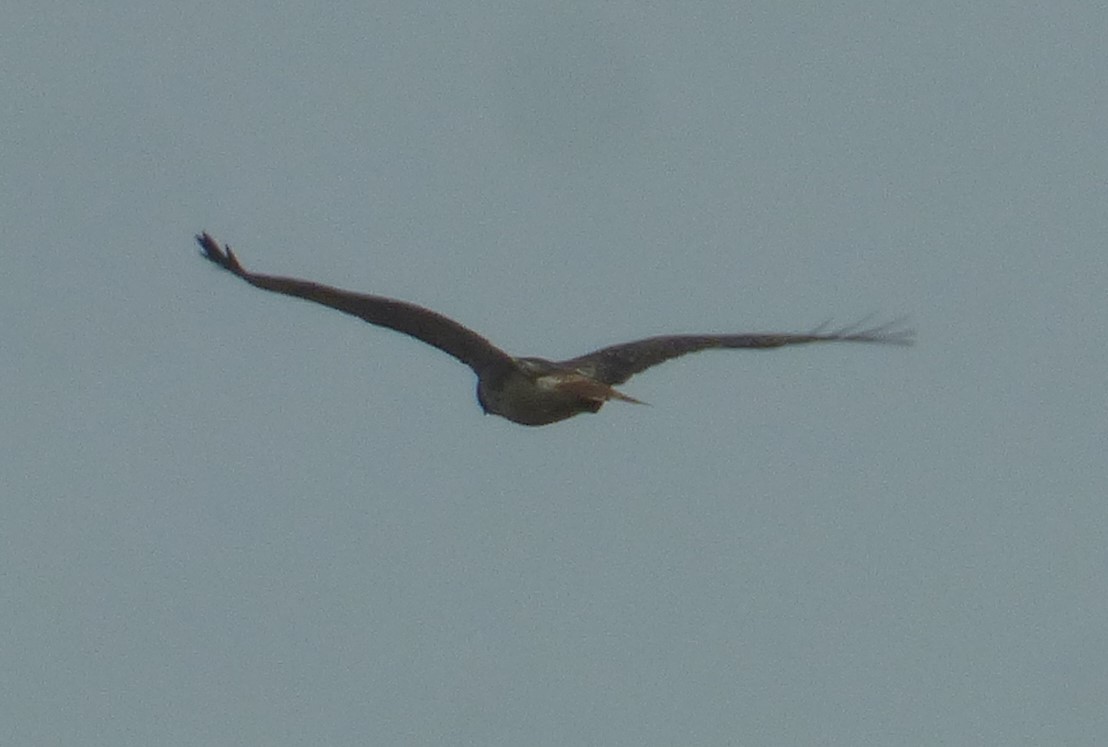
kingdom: Animalia
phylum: Chordata
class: Aves
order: Accipitriformes
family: Accipitridae
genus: Buteo
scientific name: Buteo jamaicensis
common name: Red-tailed hawk
